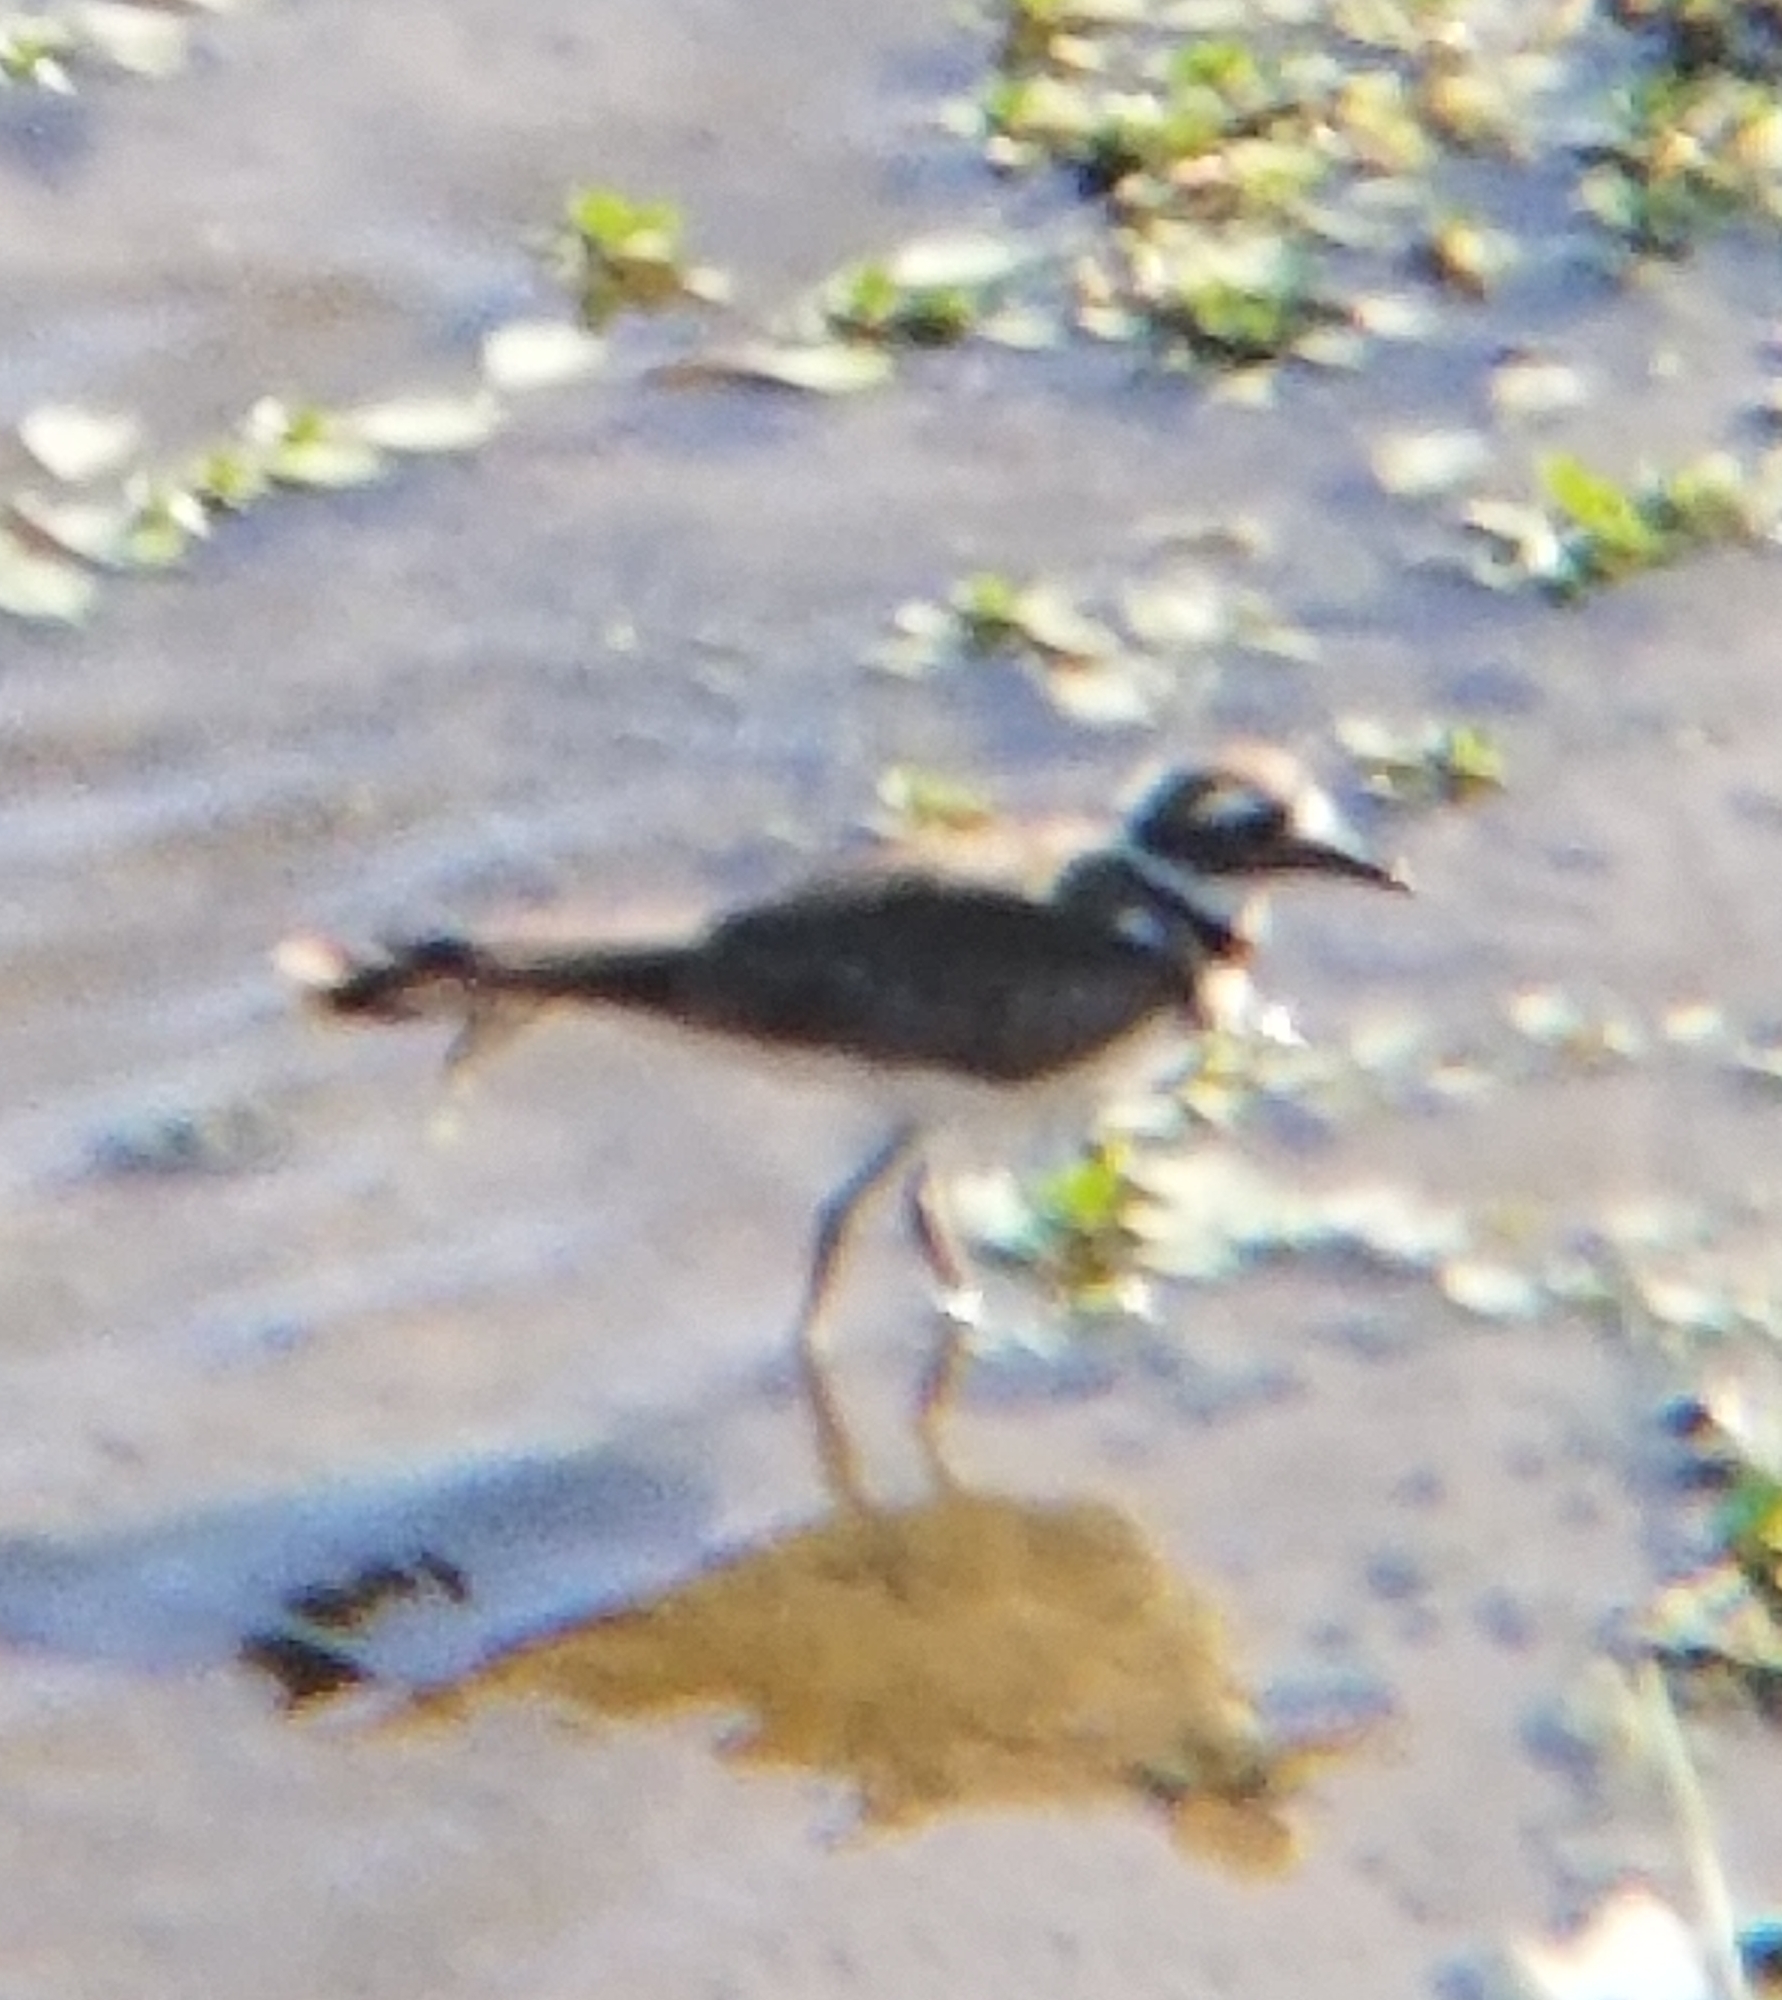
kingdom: Animalia
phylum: Chordata
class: Aves
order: Charadriiformes
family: Charadriidae
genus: Charadrius
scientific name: Charadrius vociferus
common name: Killdeer
